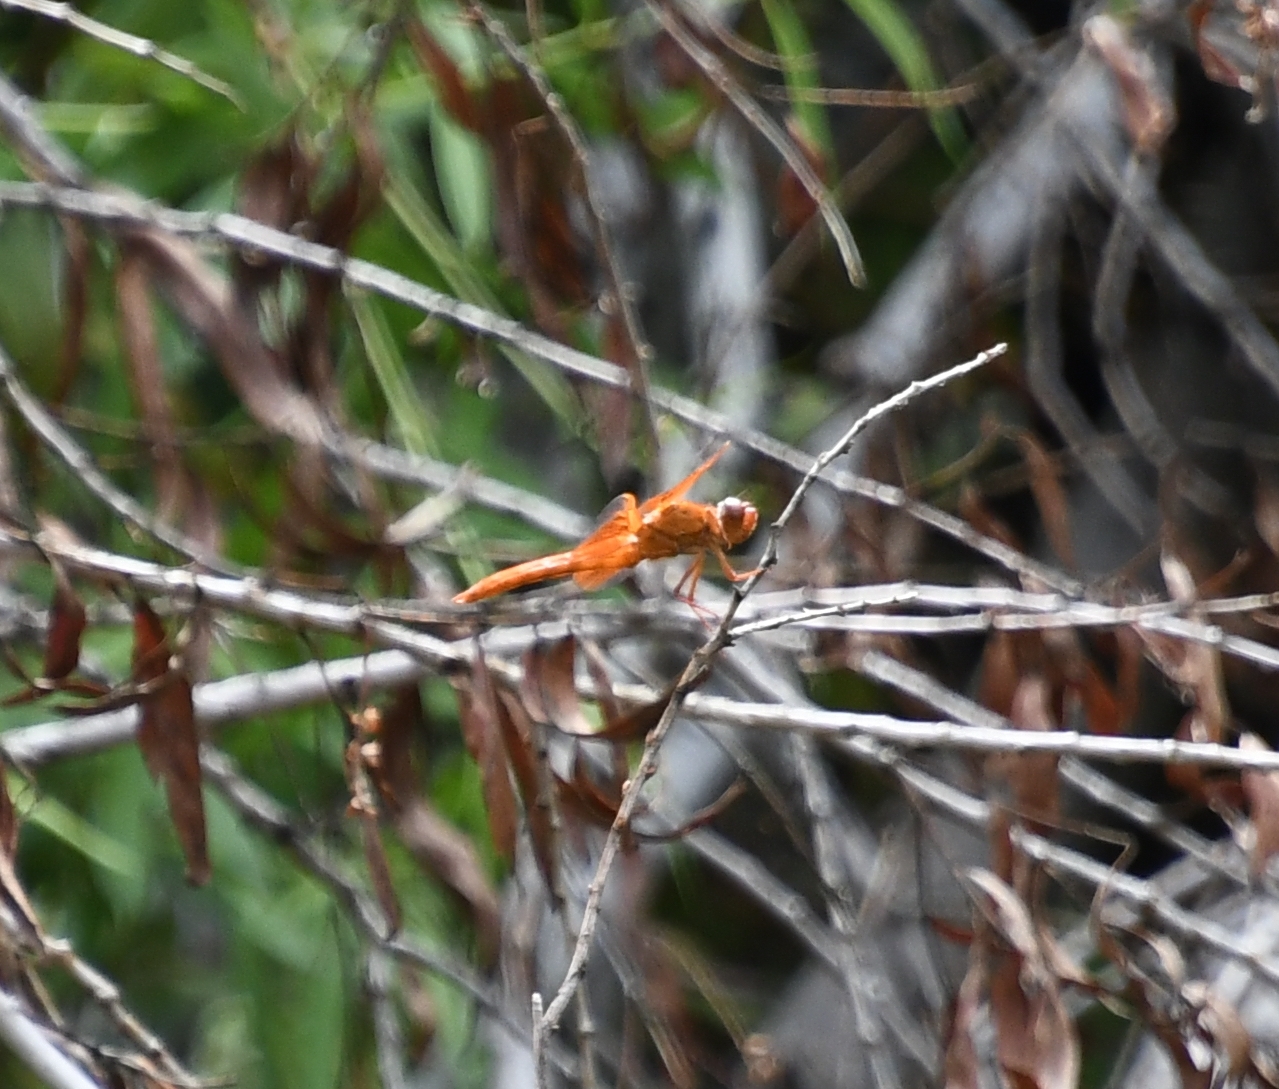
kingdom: Animalia
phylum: Arthropoda
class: Insecta
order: Odonata
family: Libellulidae
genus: Libellula
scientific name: Libellula saturata
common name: Flame skimmer
